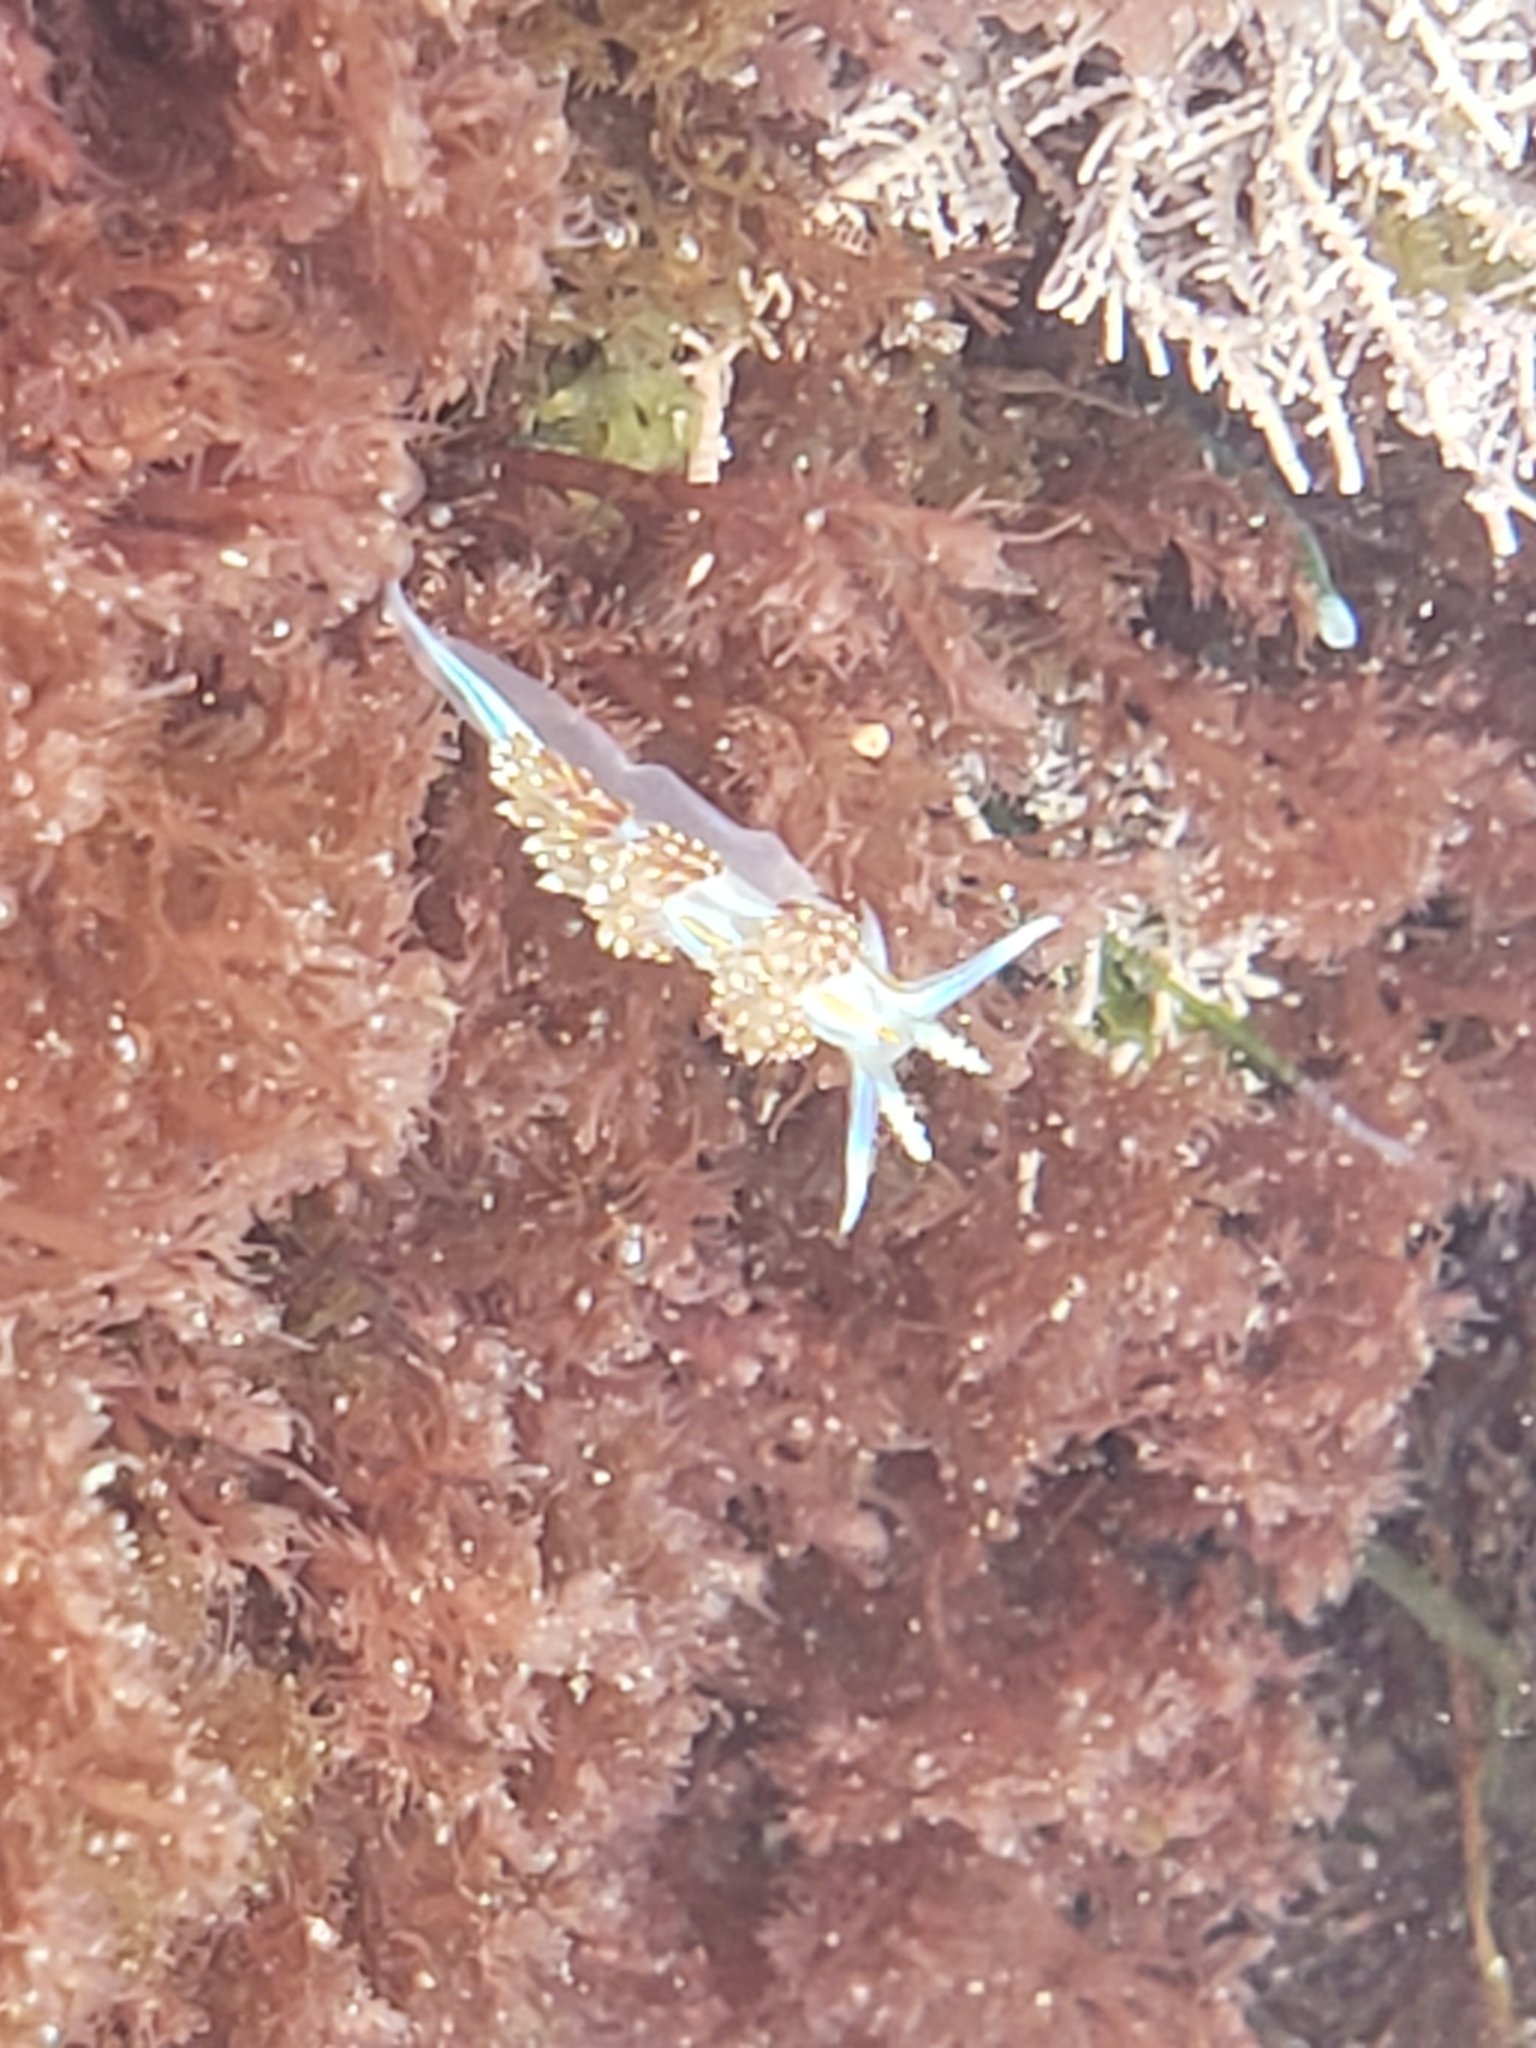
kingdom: Animalia
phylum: Mollusca
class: Gastropoda
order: Nudibranchia
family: Myrrhinidae
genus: Hermissenda
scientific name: Hermissenda opalescens
